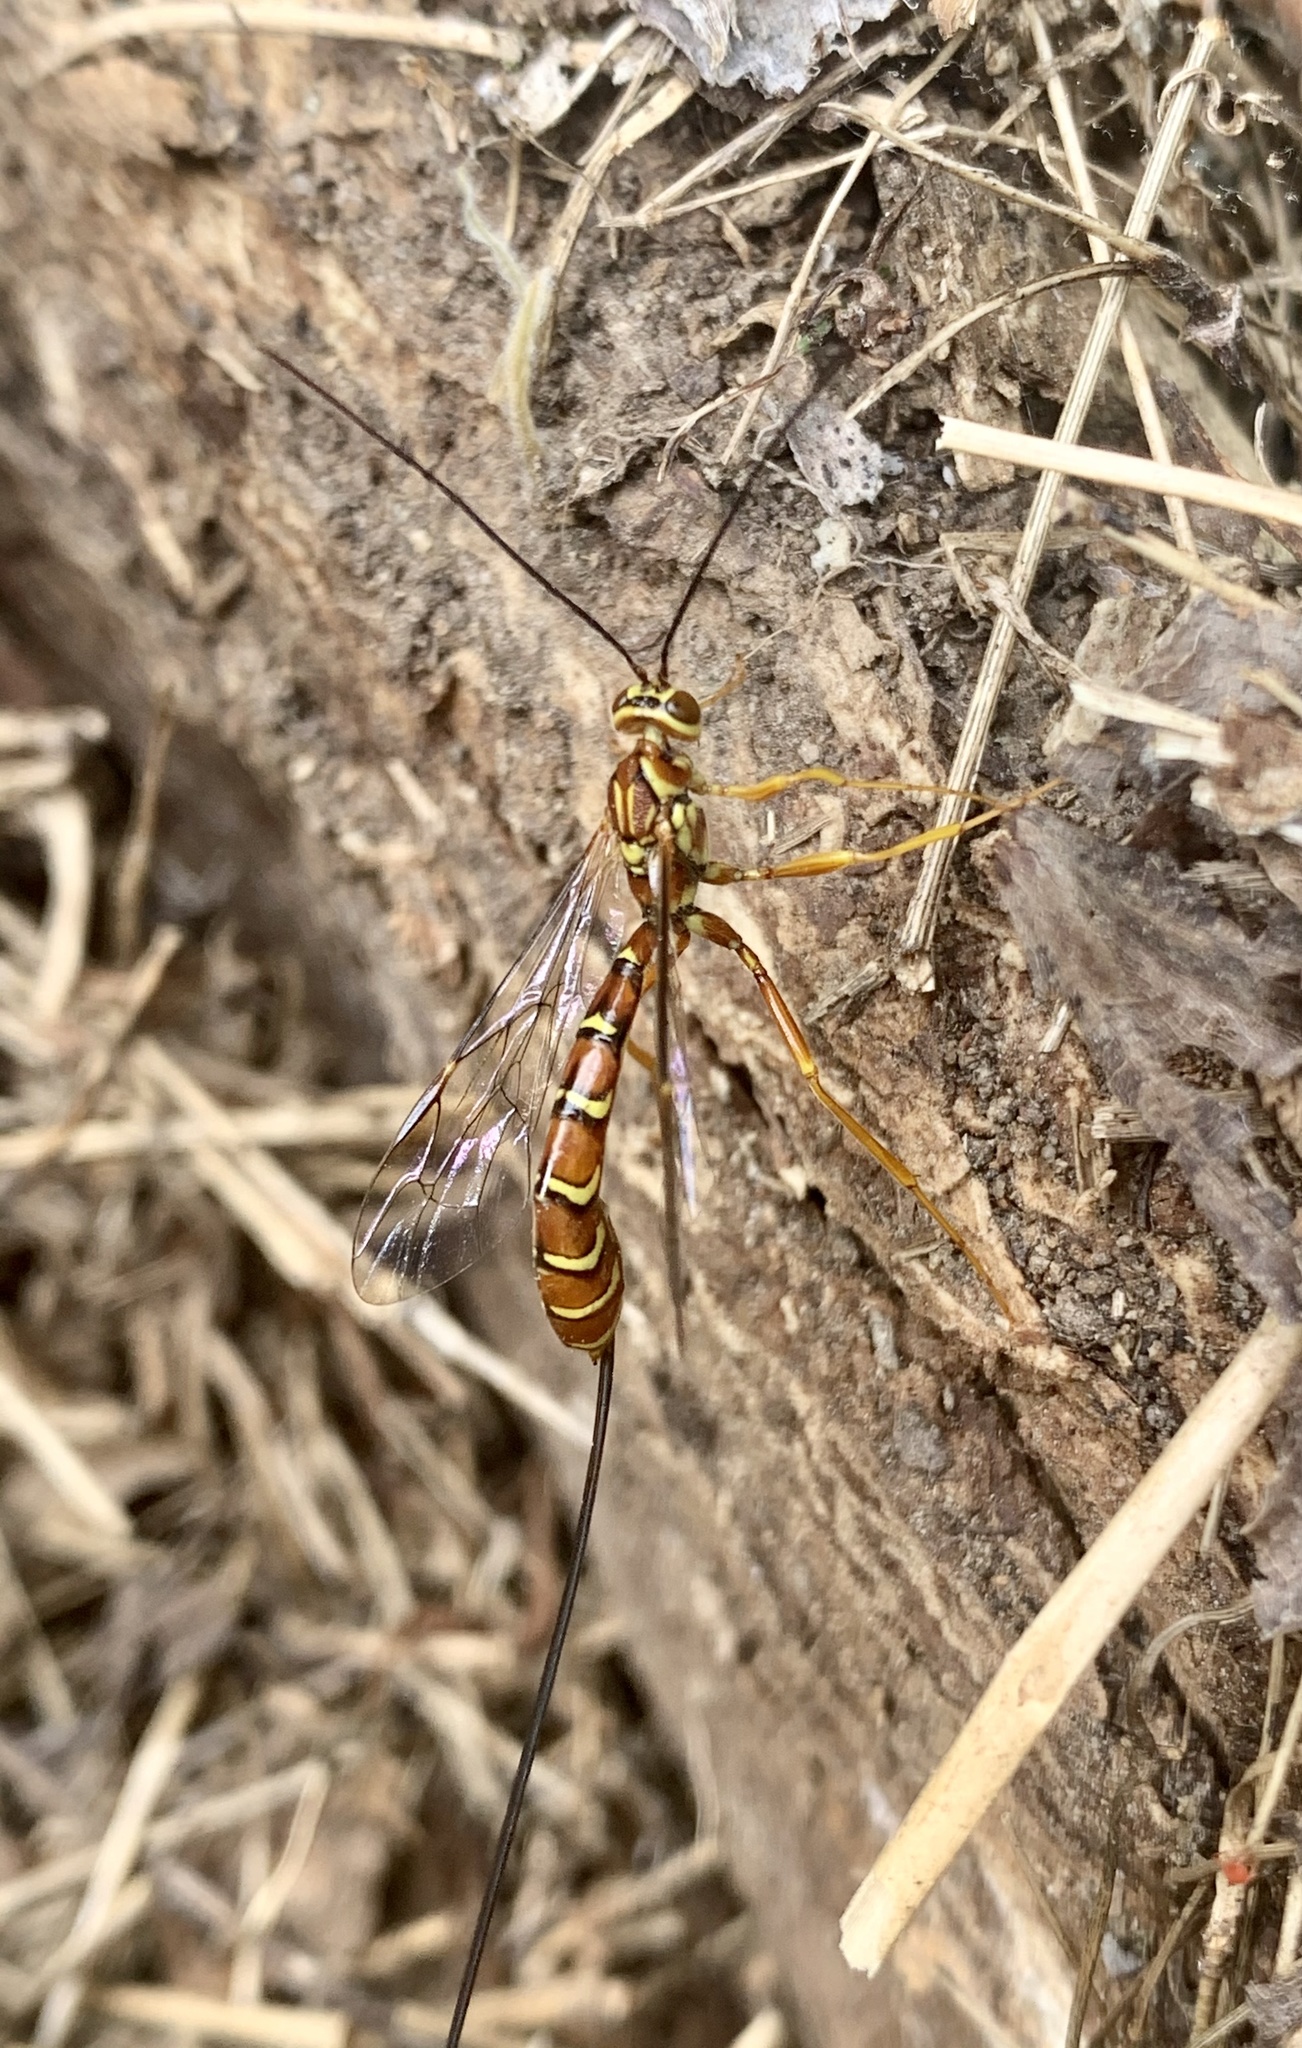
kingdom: Animalia
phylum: Arthropoda
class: Insecta
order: Hymenoptera
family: Ichneumonidae
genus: Megarhyssa
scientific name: Megarhyssa greenei
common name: Greene's giant ichneumonid wasp
